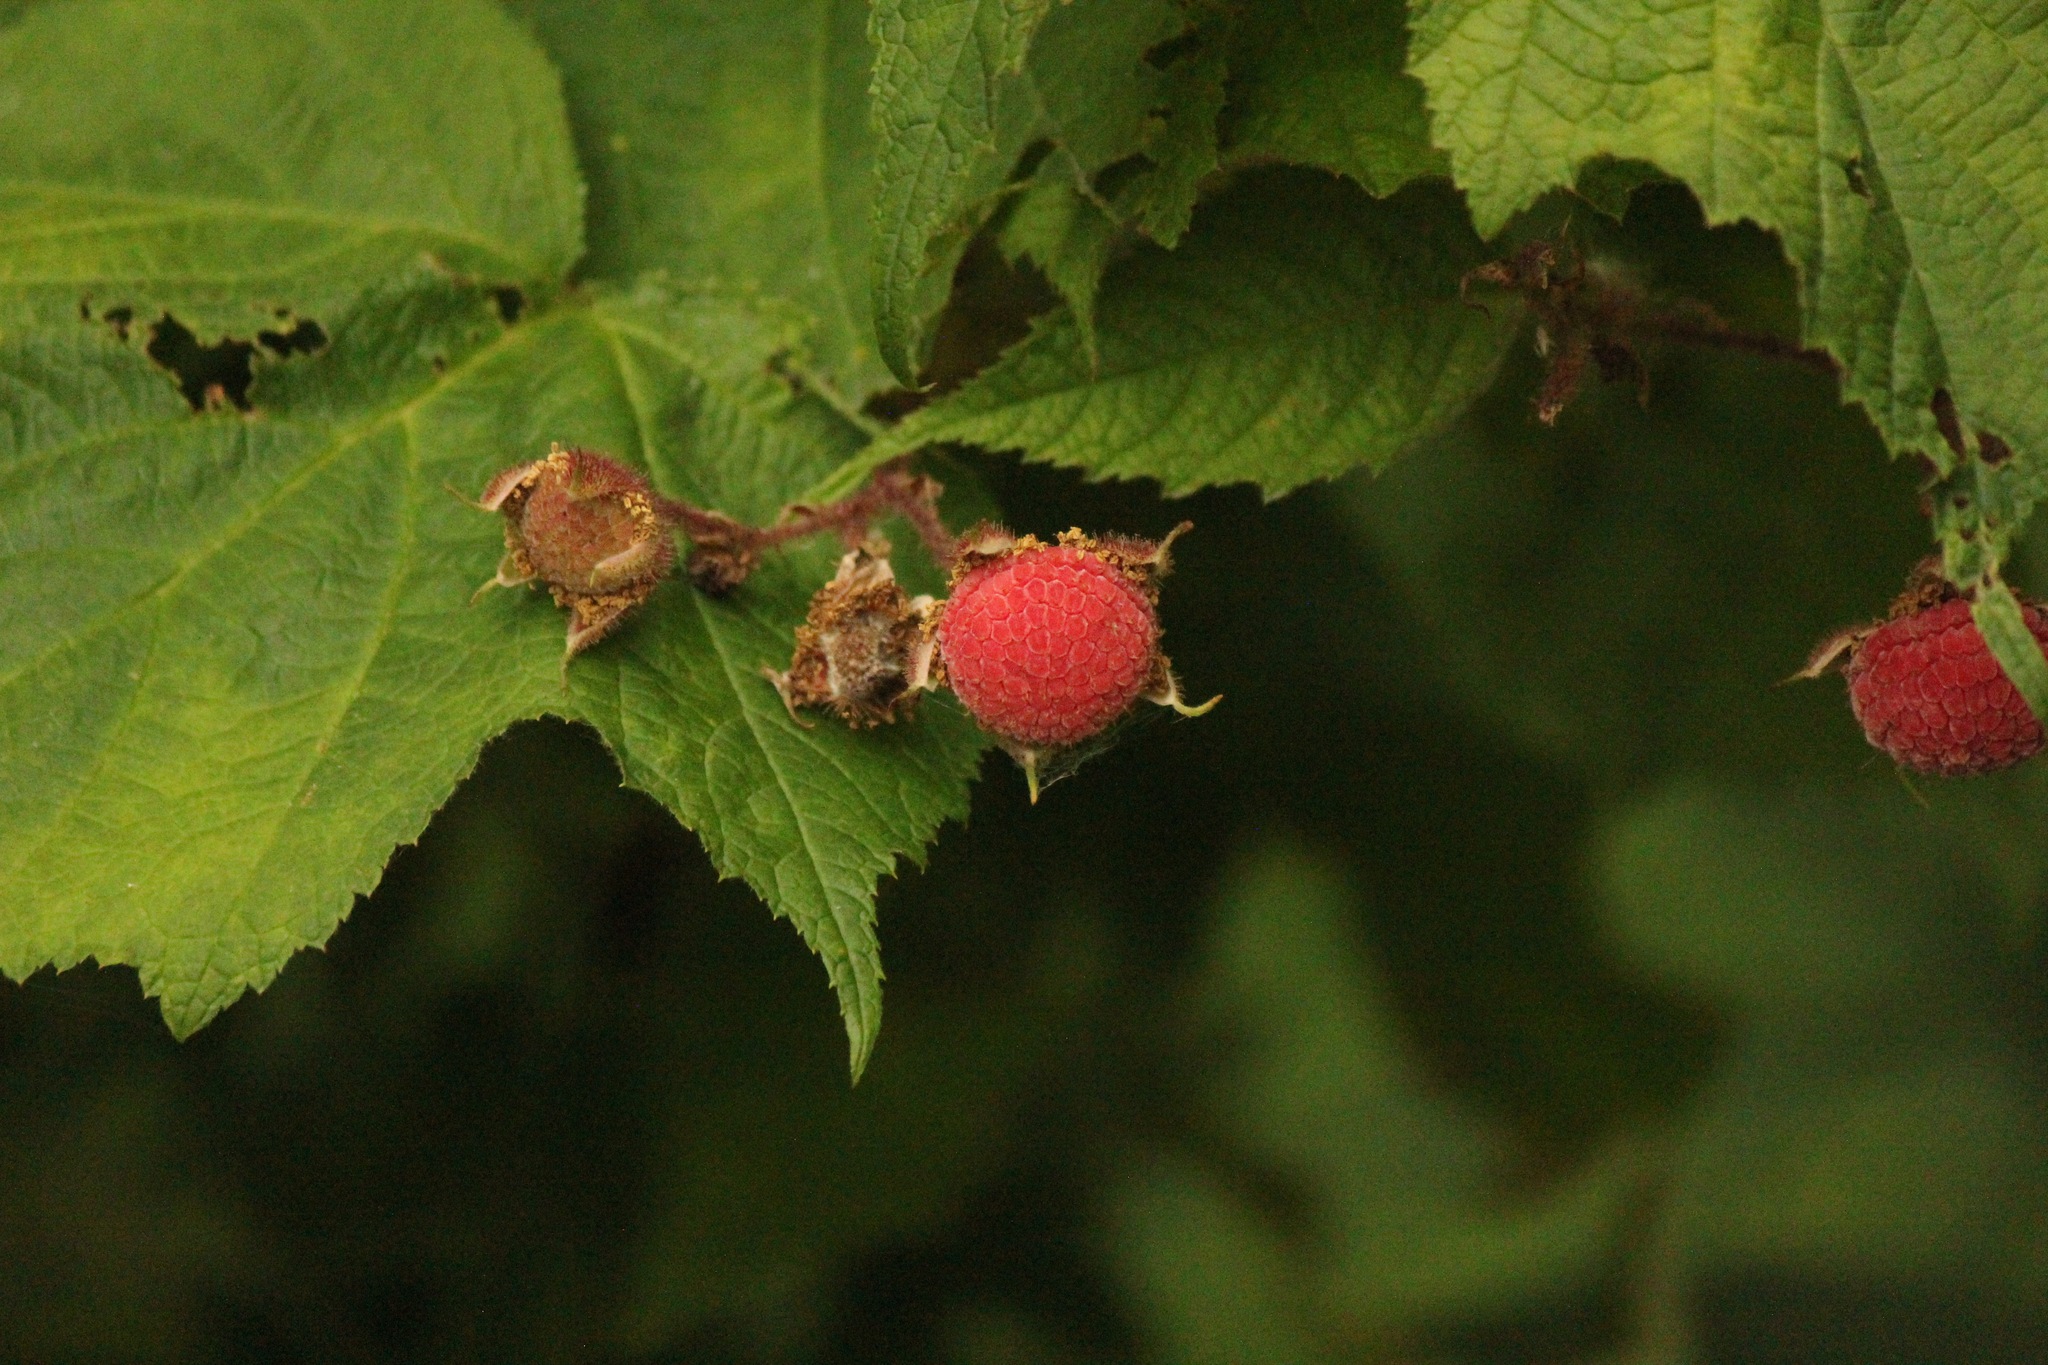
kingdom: Plantae
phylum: Tracheophyta
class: Magnoliopsida
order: Rosales
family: Rosaceae
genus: Rubus
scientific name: Rubus odoratus
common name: Purple-flowered raspberry
